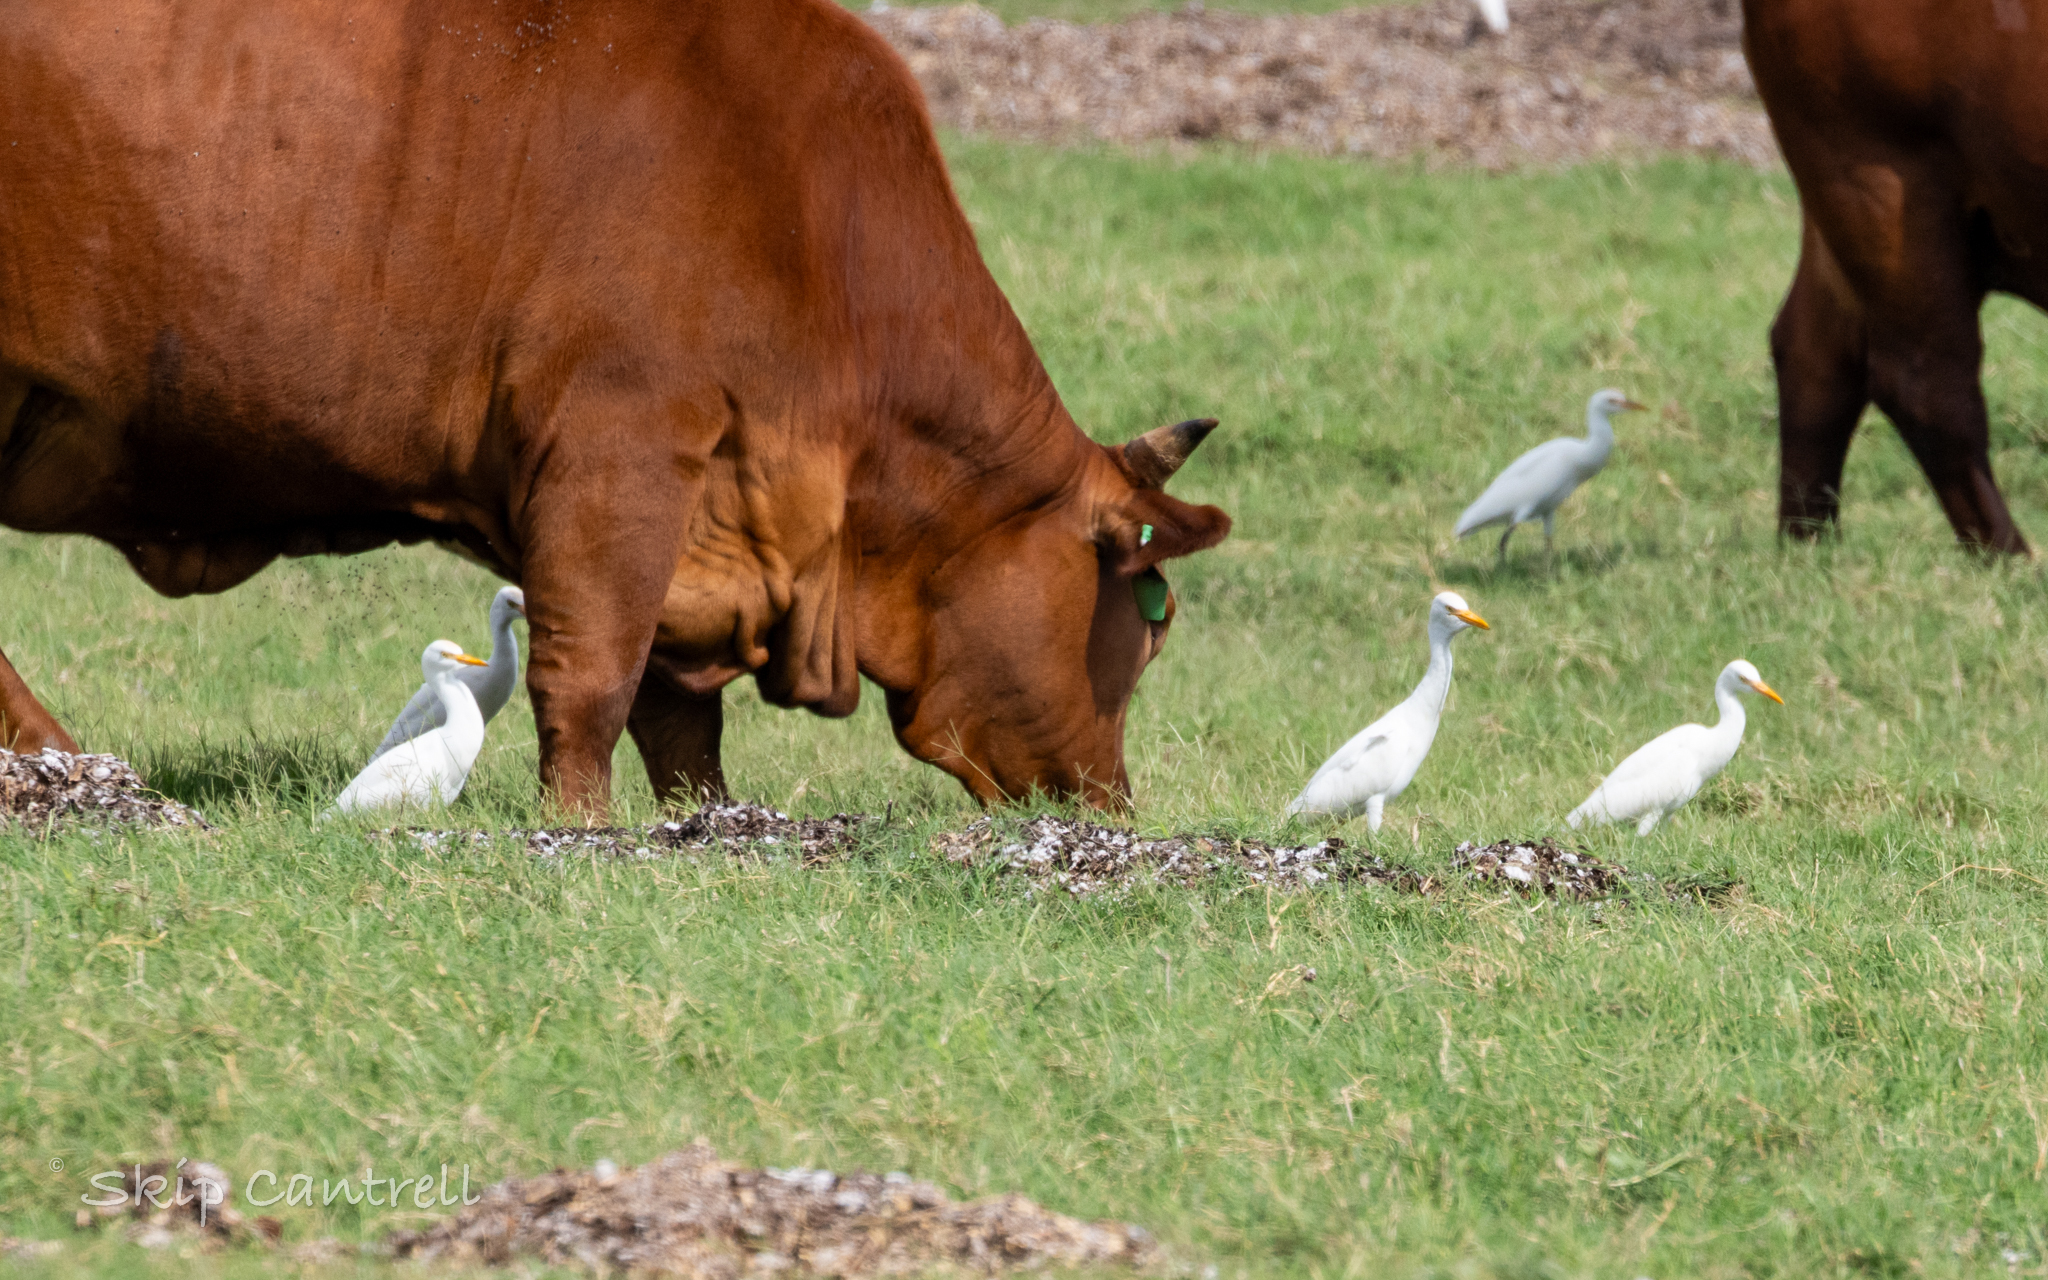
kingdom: Animalia
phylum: Chordata
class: Aves
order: Pelecaniformes
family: Ardeidae
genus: Bubulcus
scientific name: Bubulcus ibis
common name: Cattle egret
